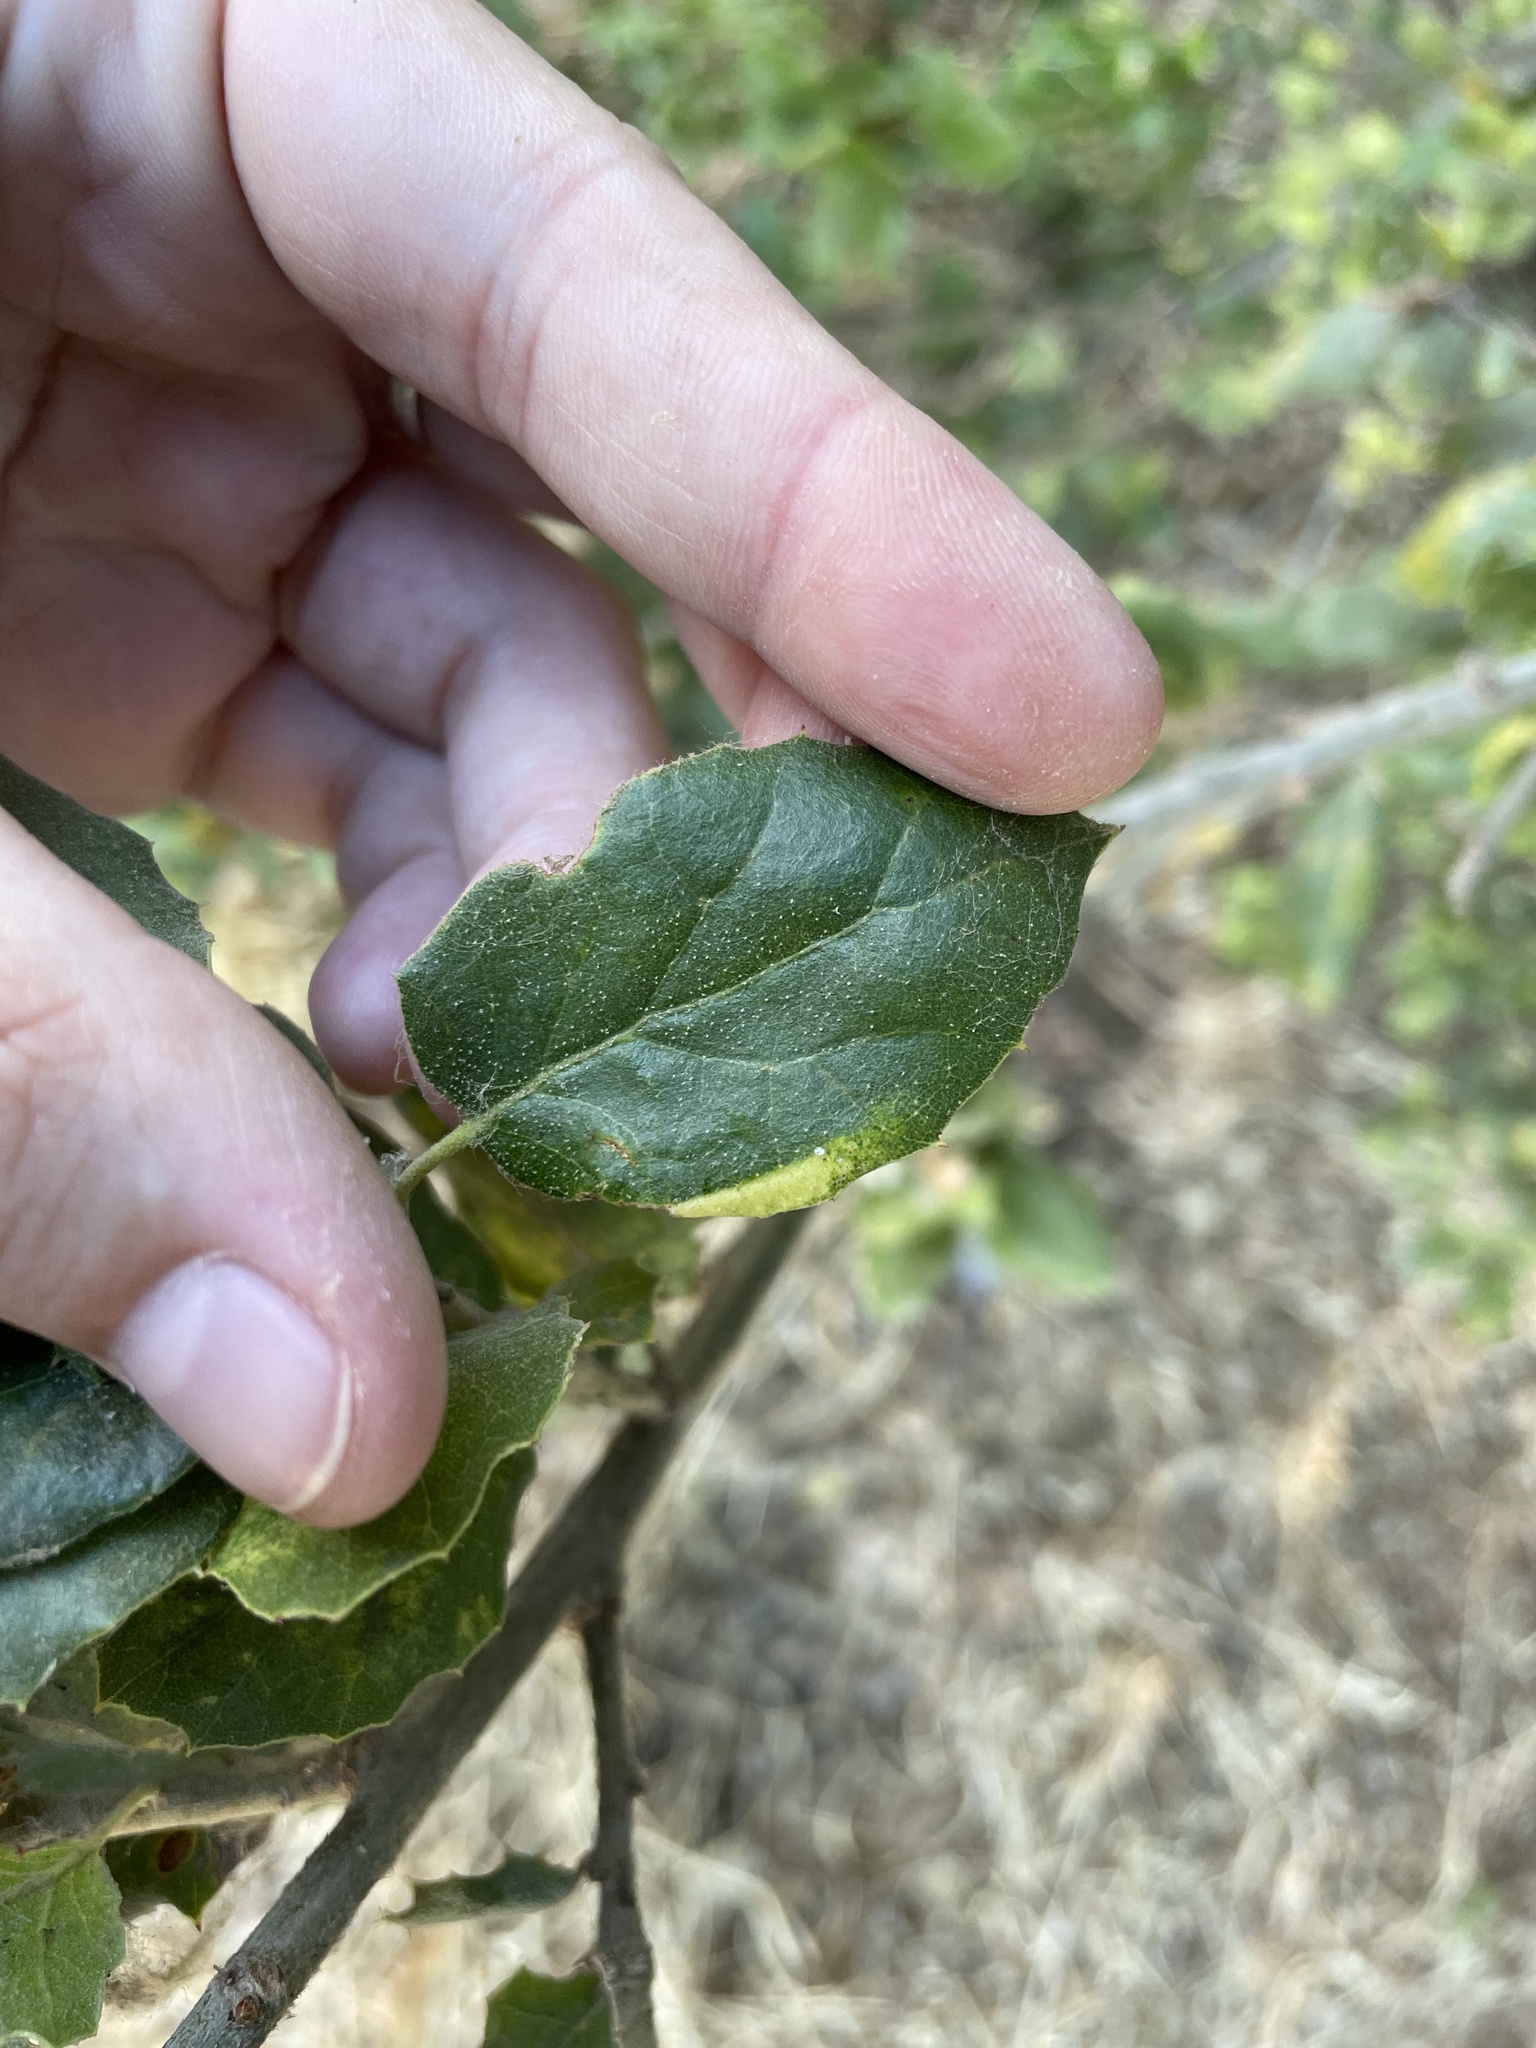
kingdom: Plantae
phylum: Tracheophyta
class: Magnoliopsida
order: Fagales
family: Fagaceae
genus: Quercus
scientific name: Quercus agrifolia
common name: California live oak
